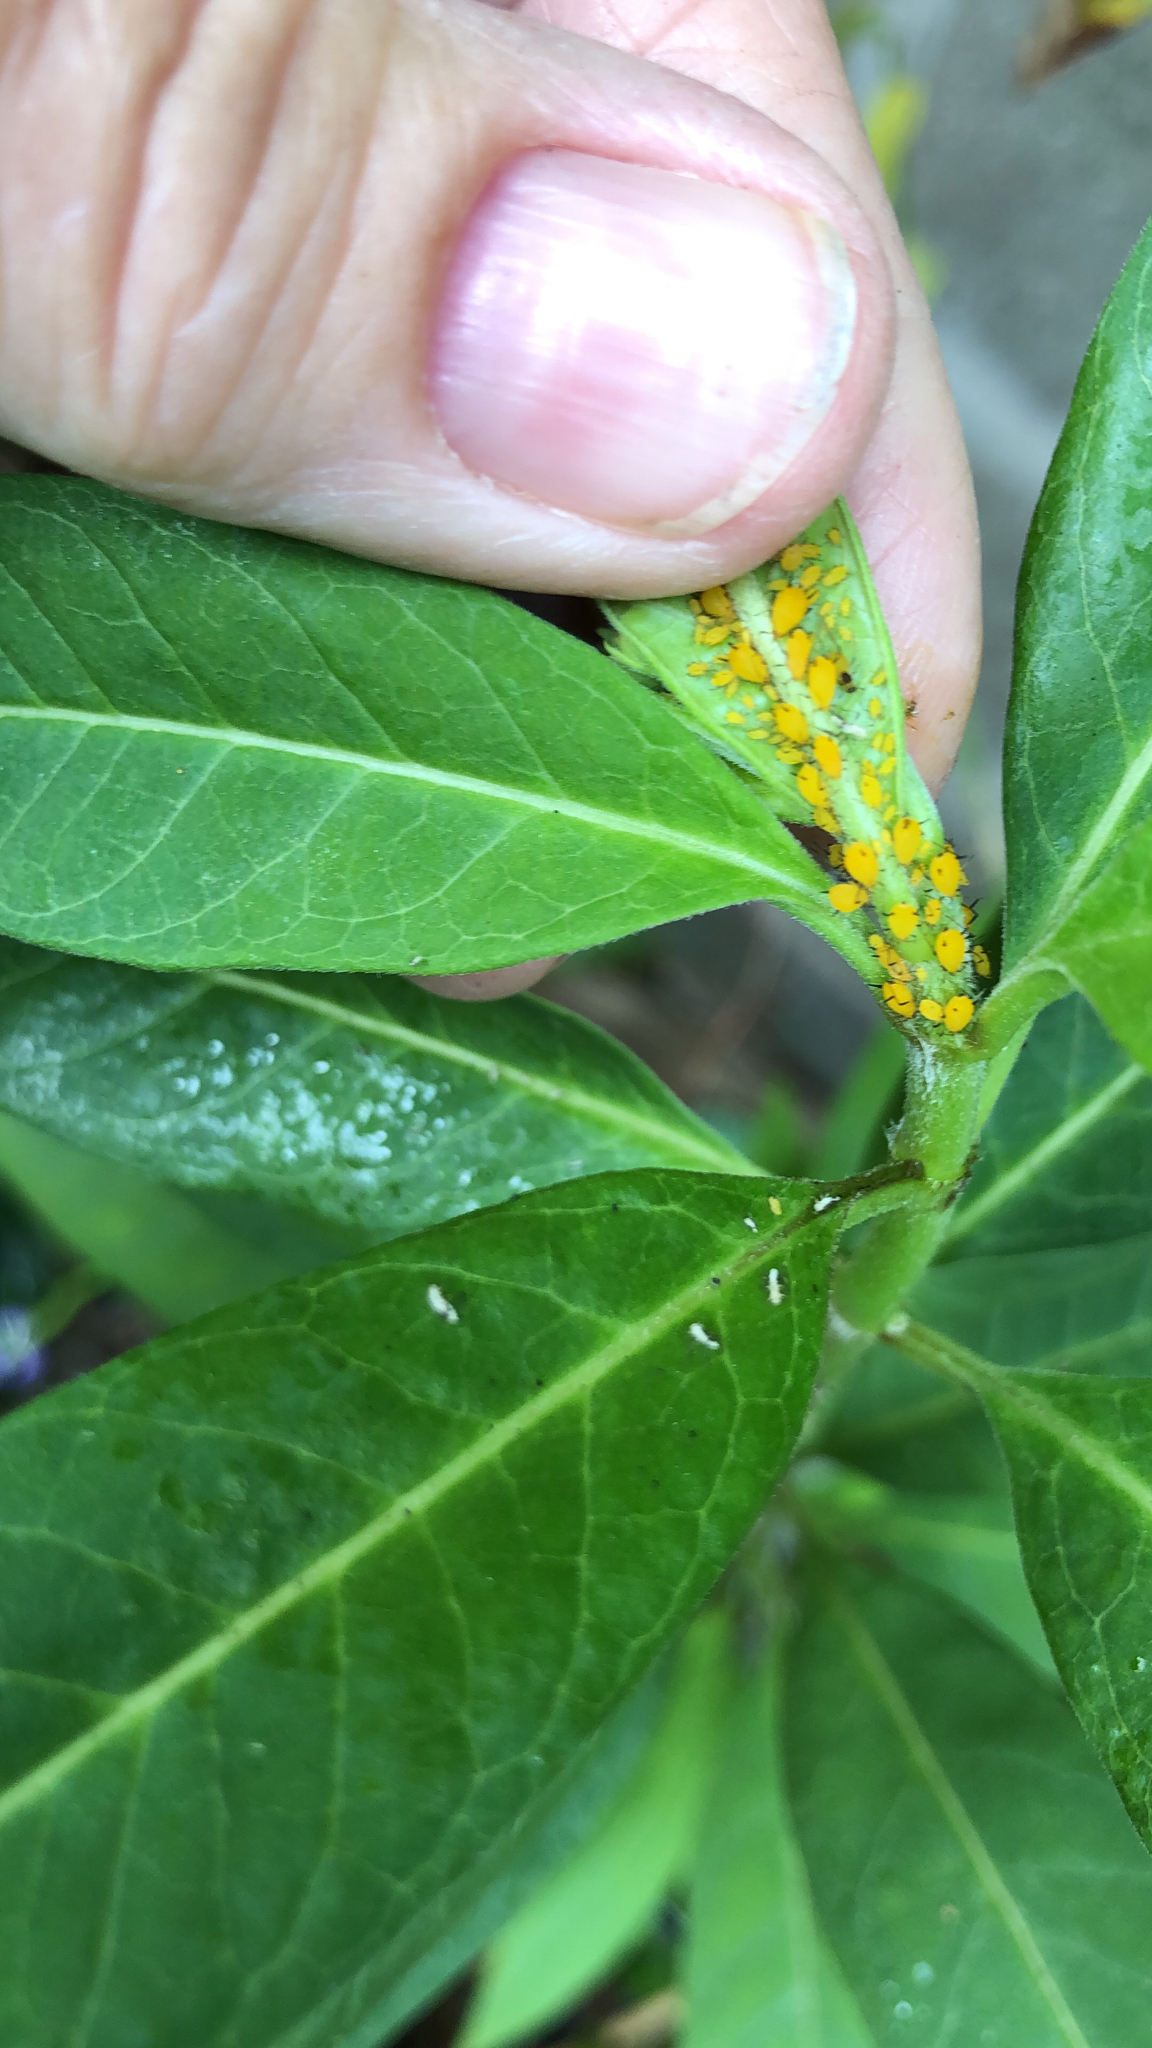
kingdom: Animalia
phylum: Arthropoda
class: Insecta
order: Hemiptera
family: Aphididae
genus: Aphis
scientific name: Aphis nerii
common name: Oleander aphid
